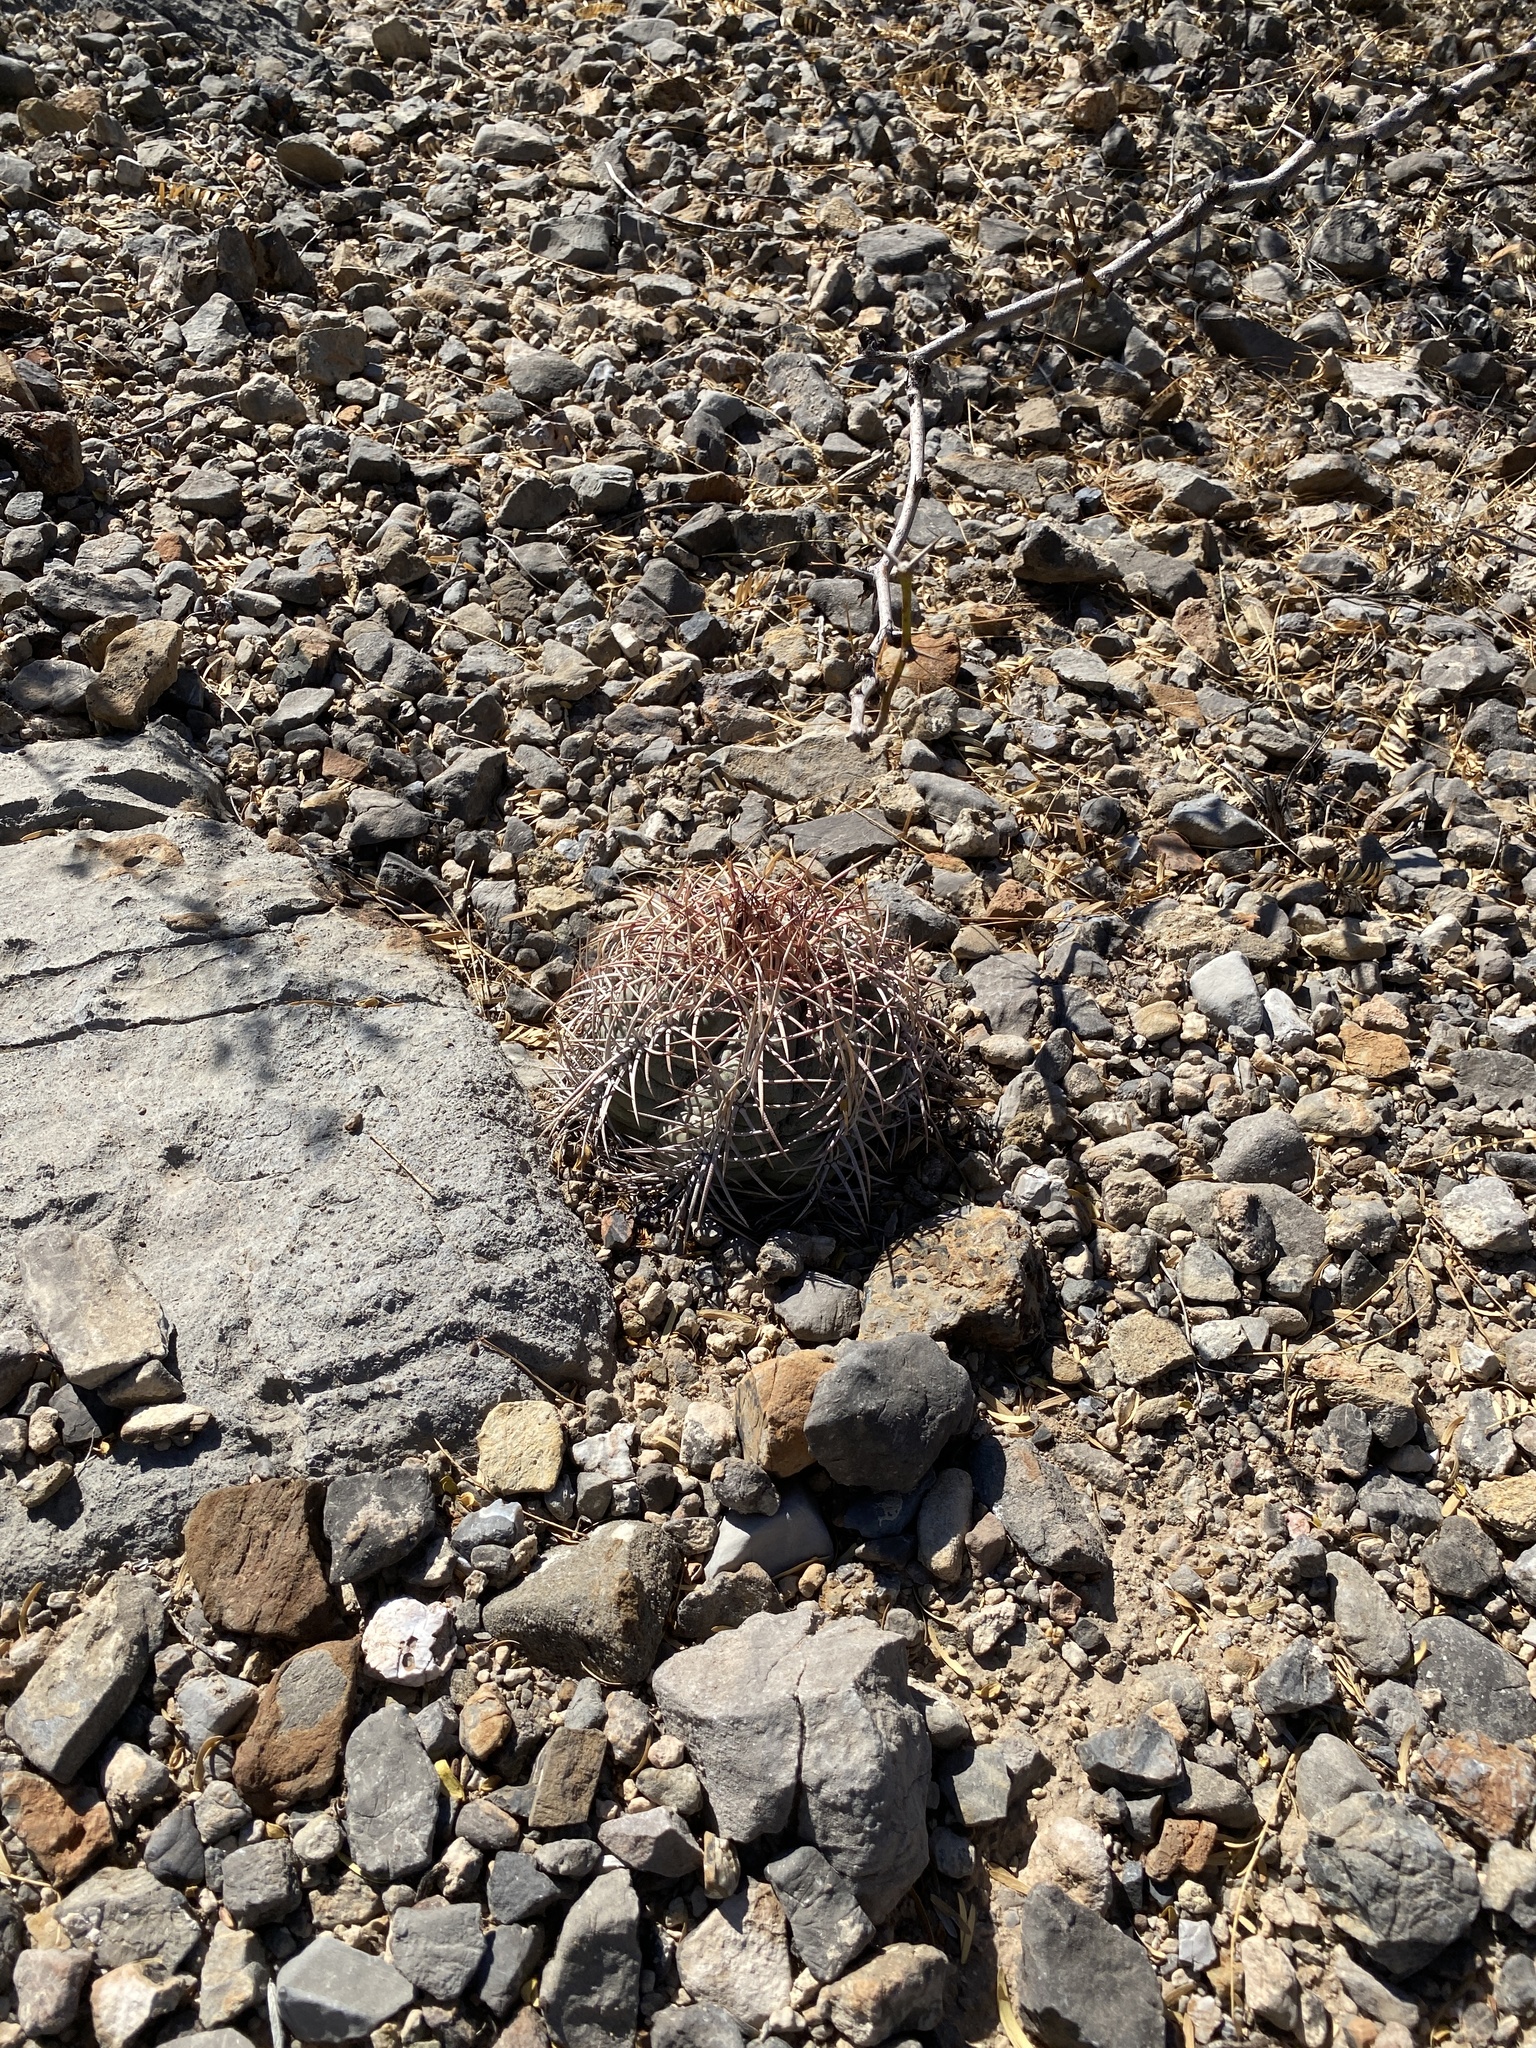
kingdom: Plantae
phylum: Tracheophyta
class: Magnoliopsida
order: Caryophyllales
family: Cactaceae
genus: Echinocactus
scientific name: Echinocactus horizonthalonius
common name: Devilshead
